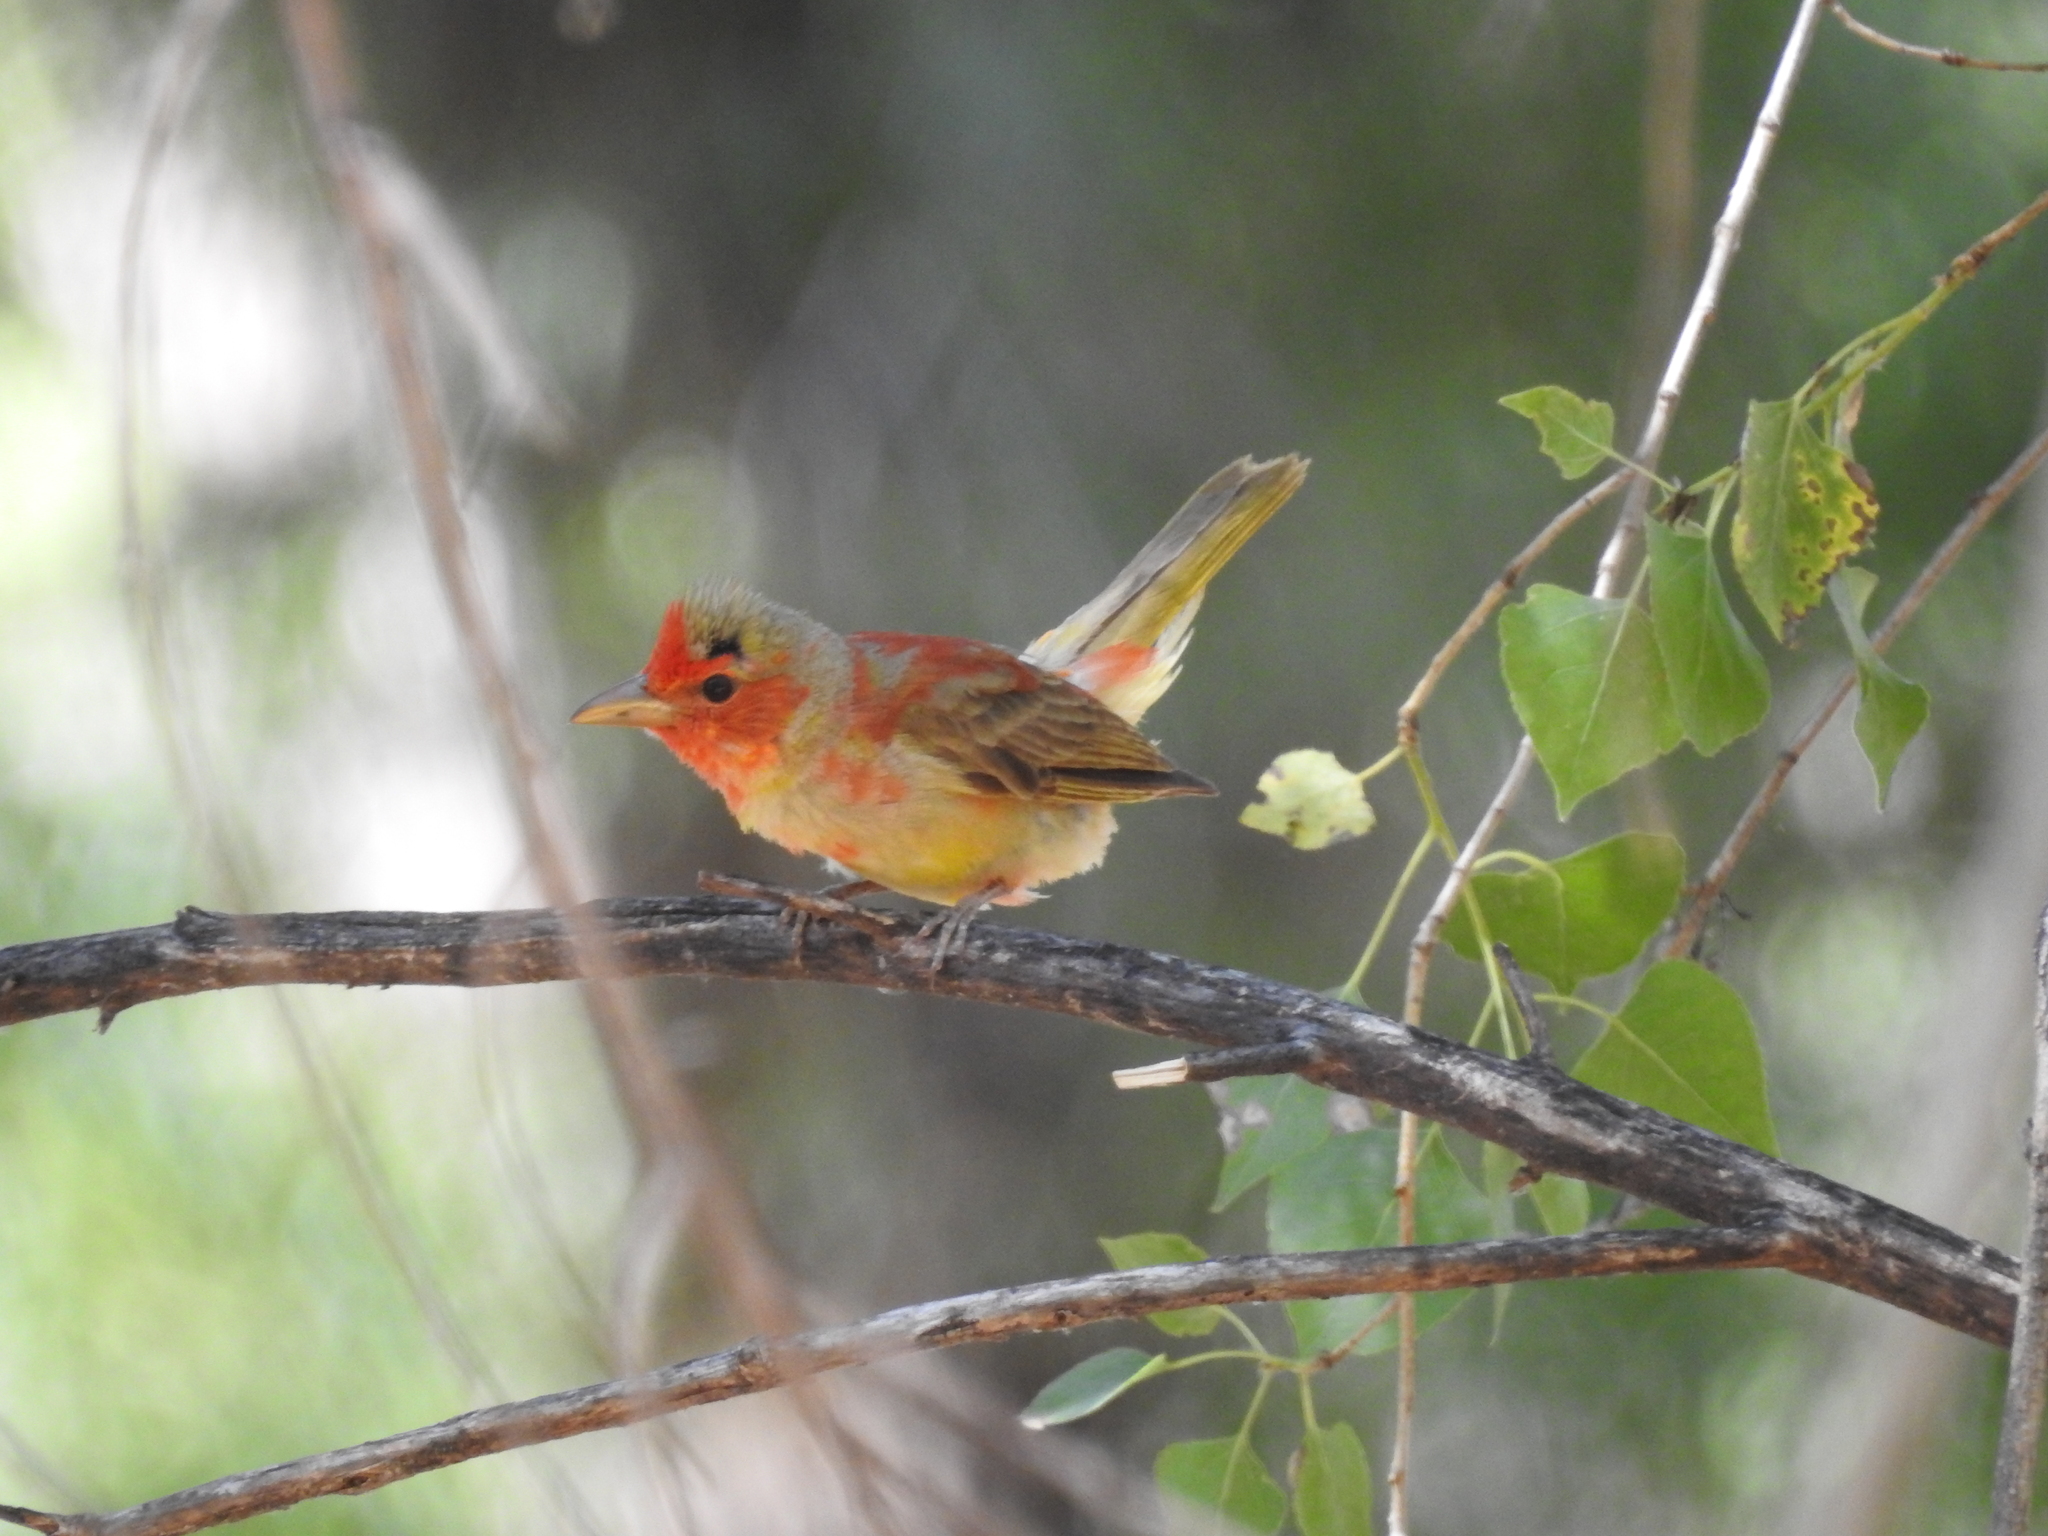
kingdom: Animalia
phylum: Chordata
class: Aves
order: Passeriformes
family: Cardinalidae
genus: Piranga
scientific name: Piranga rubra
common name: Summer tanager
